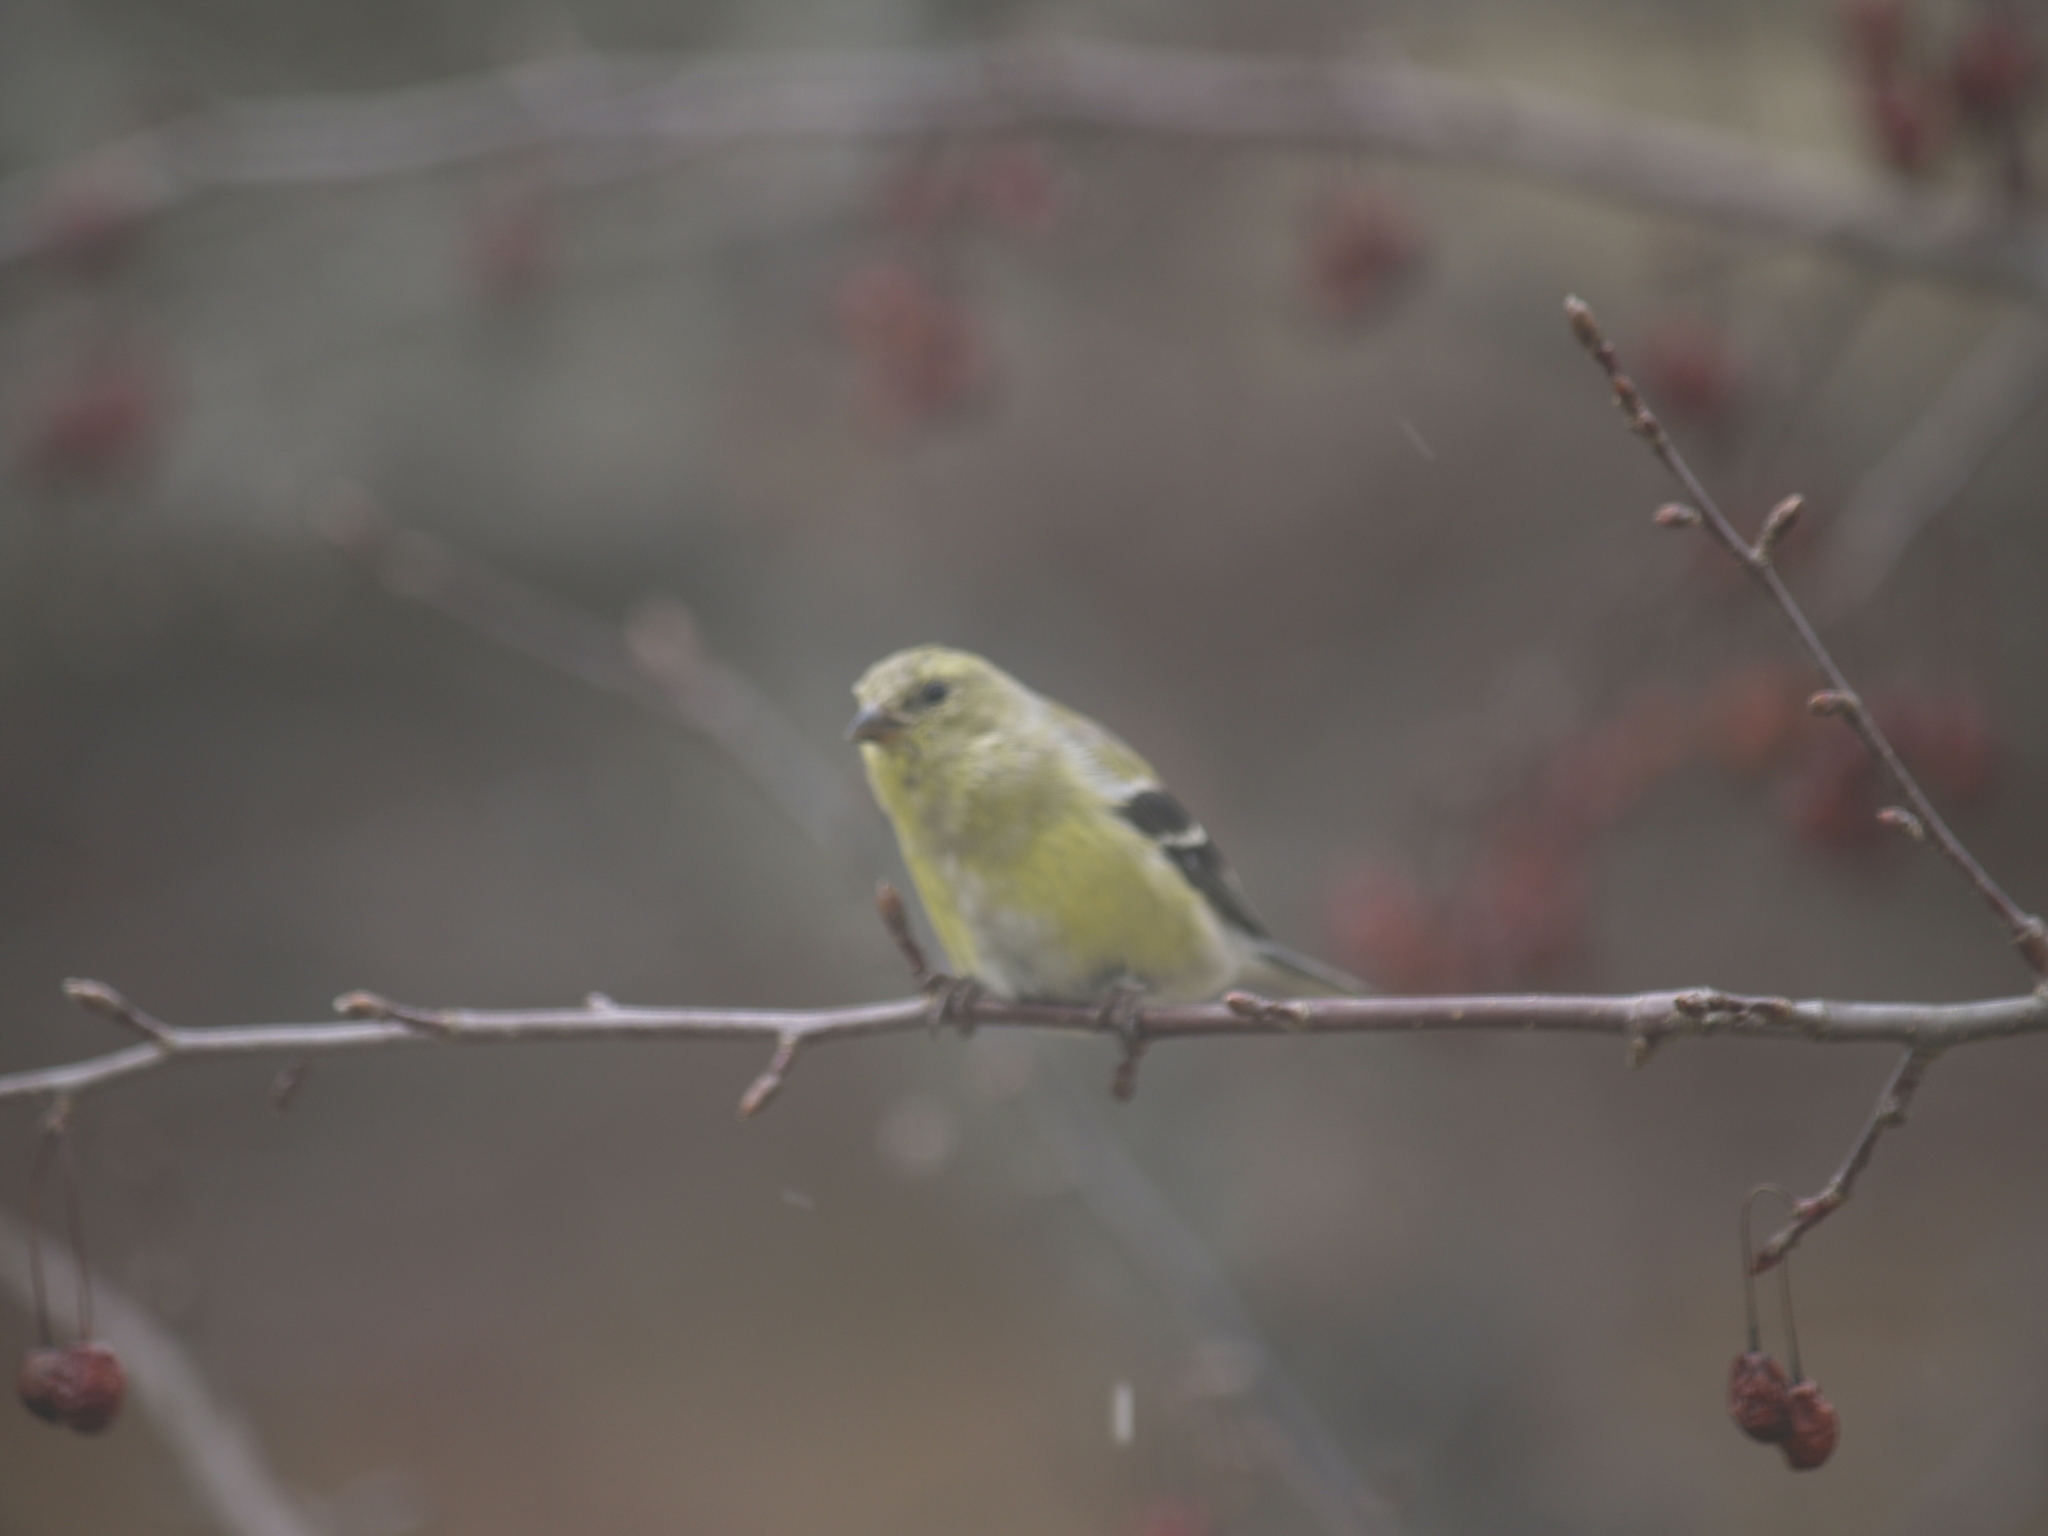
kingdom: Animalia
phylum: Chordata
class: Aves
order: Passeriformes
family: Fringillidae
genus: Spinus
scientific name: Spinus tristis
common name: American goldfinch
